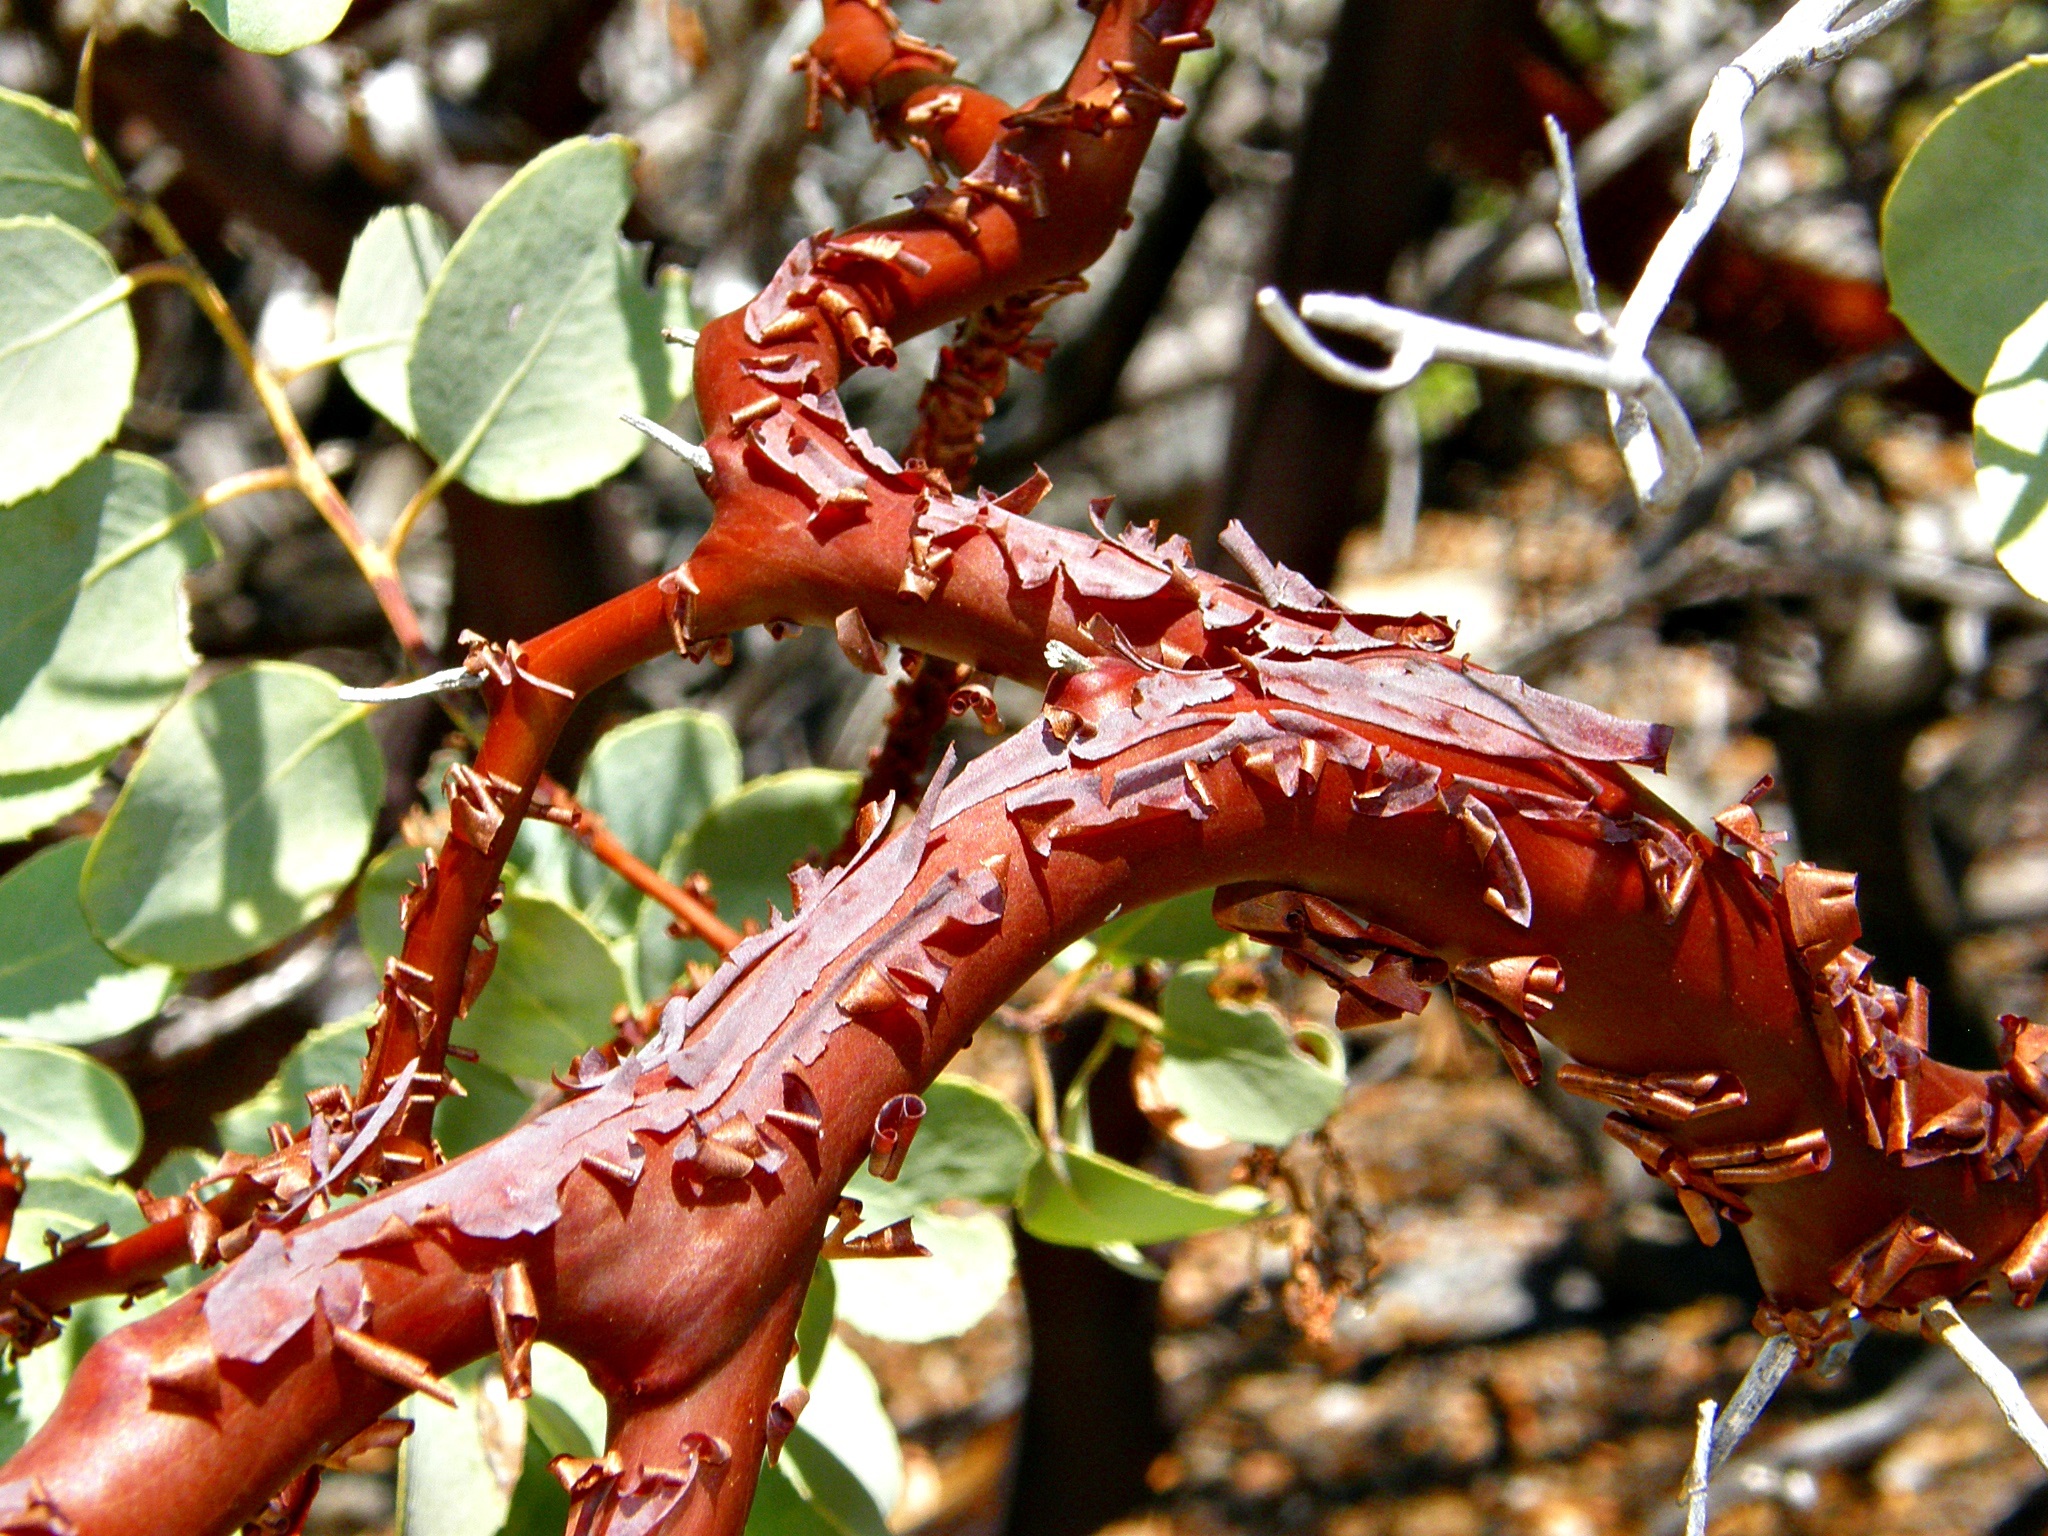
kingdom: Plantae
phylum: Tracheophyta
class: Magnoliopsida
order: Ericales
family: Ericaceae
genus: Arctostaphylos
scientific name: Arctostaphylos viscida
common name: White-leaf manzanita
